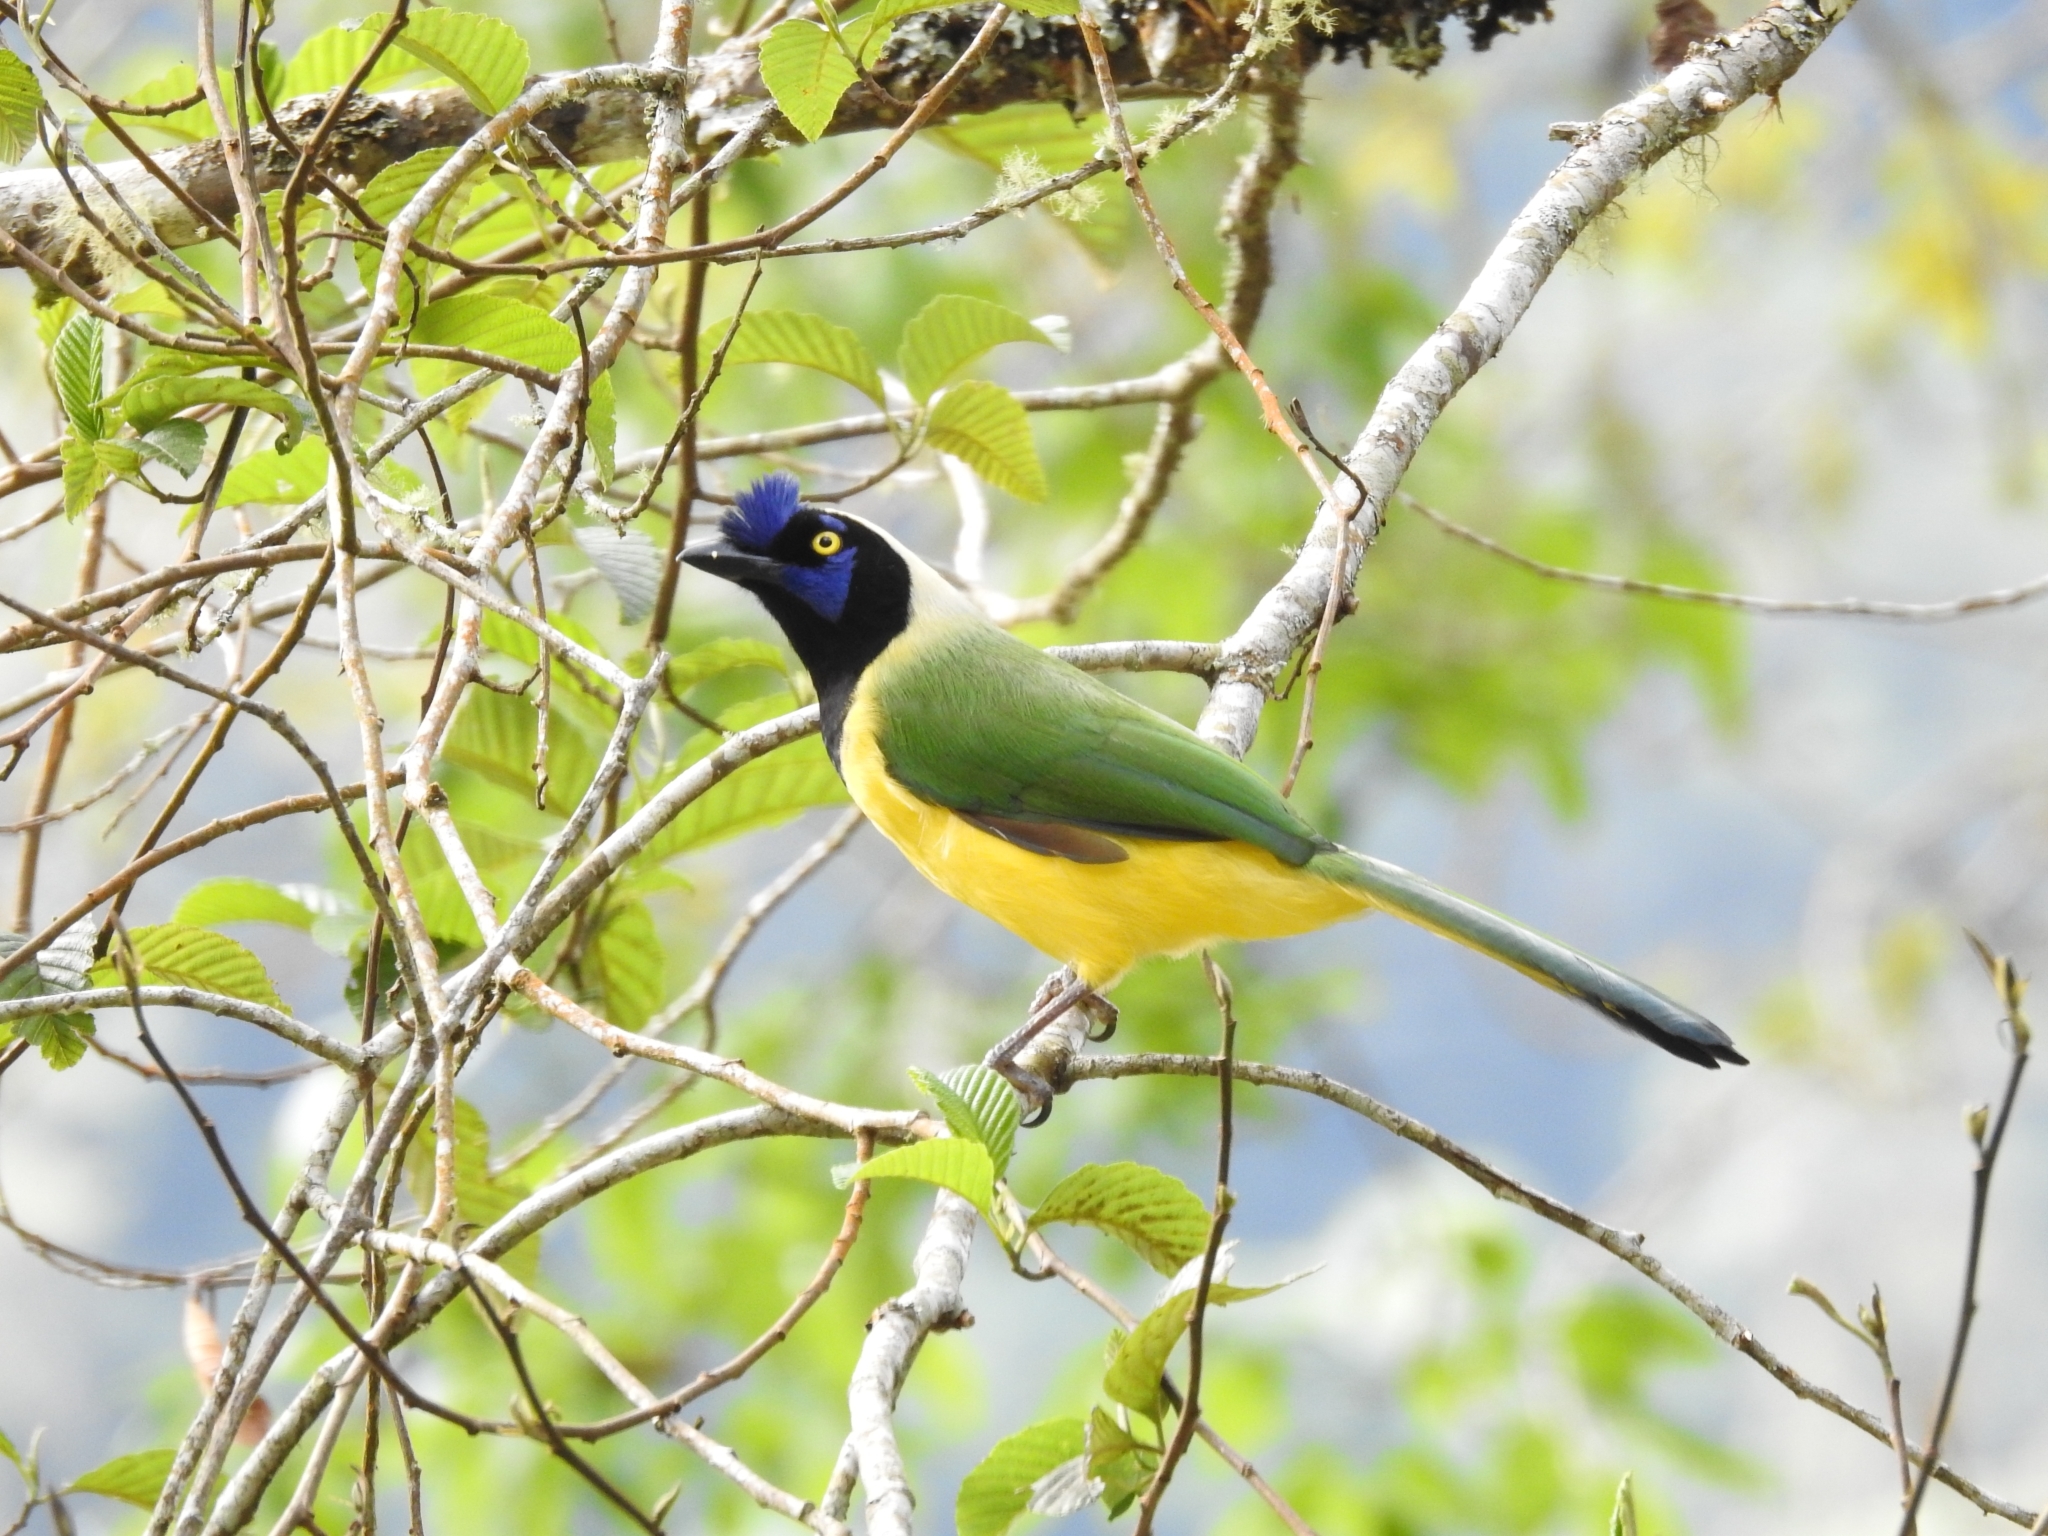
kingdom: Animalia
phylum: Chordata
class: Aves
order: Passeriformes
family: Corvidae
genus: Cyanocorax
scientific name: Cyanocorax yncas
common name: Green jay
